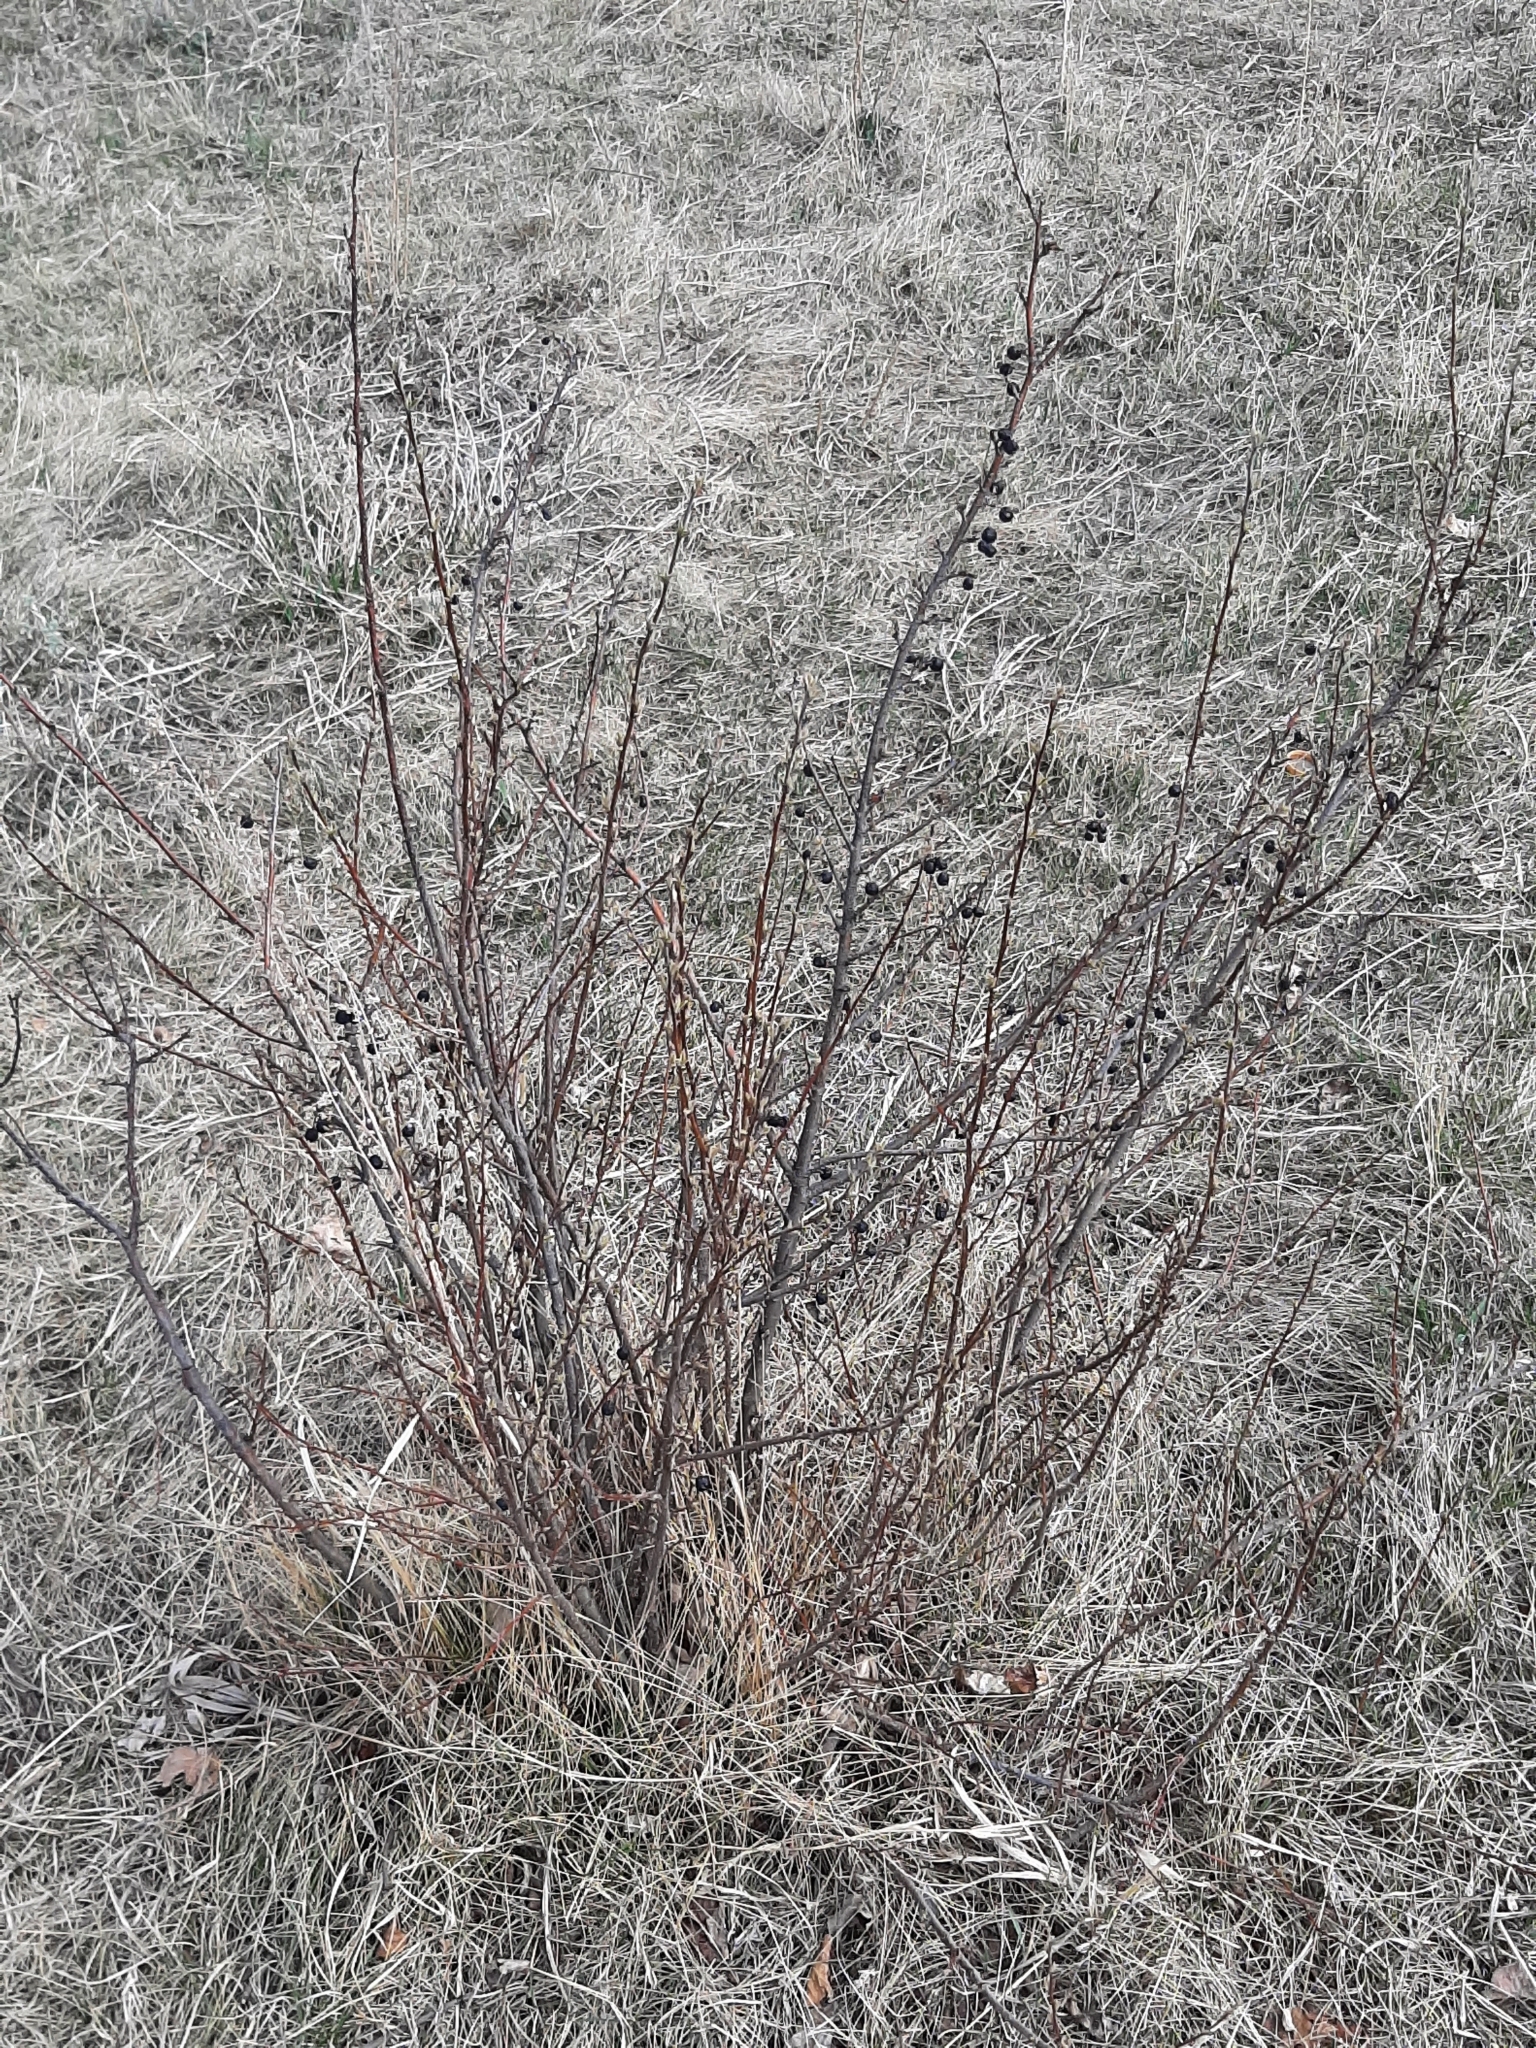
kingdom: Plantae
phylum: Tracheophyta
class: Magnoliopsida
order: Rosales
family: Rosaceae
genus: Cotoneaster
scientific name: Cotoneaster acutifolius
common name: Peking cotoneaster
